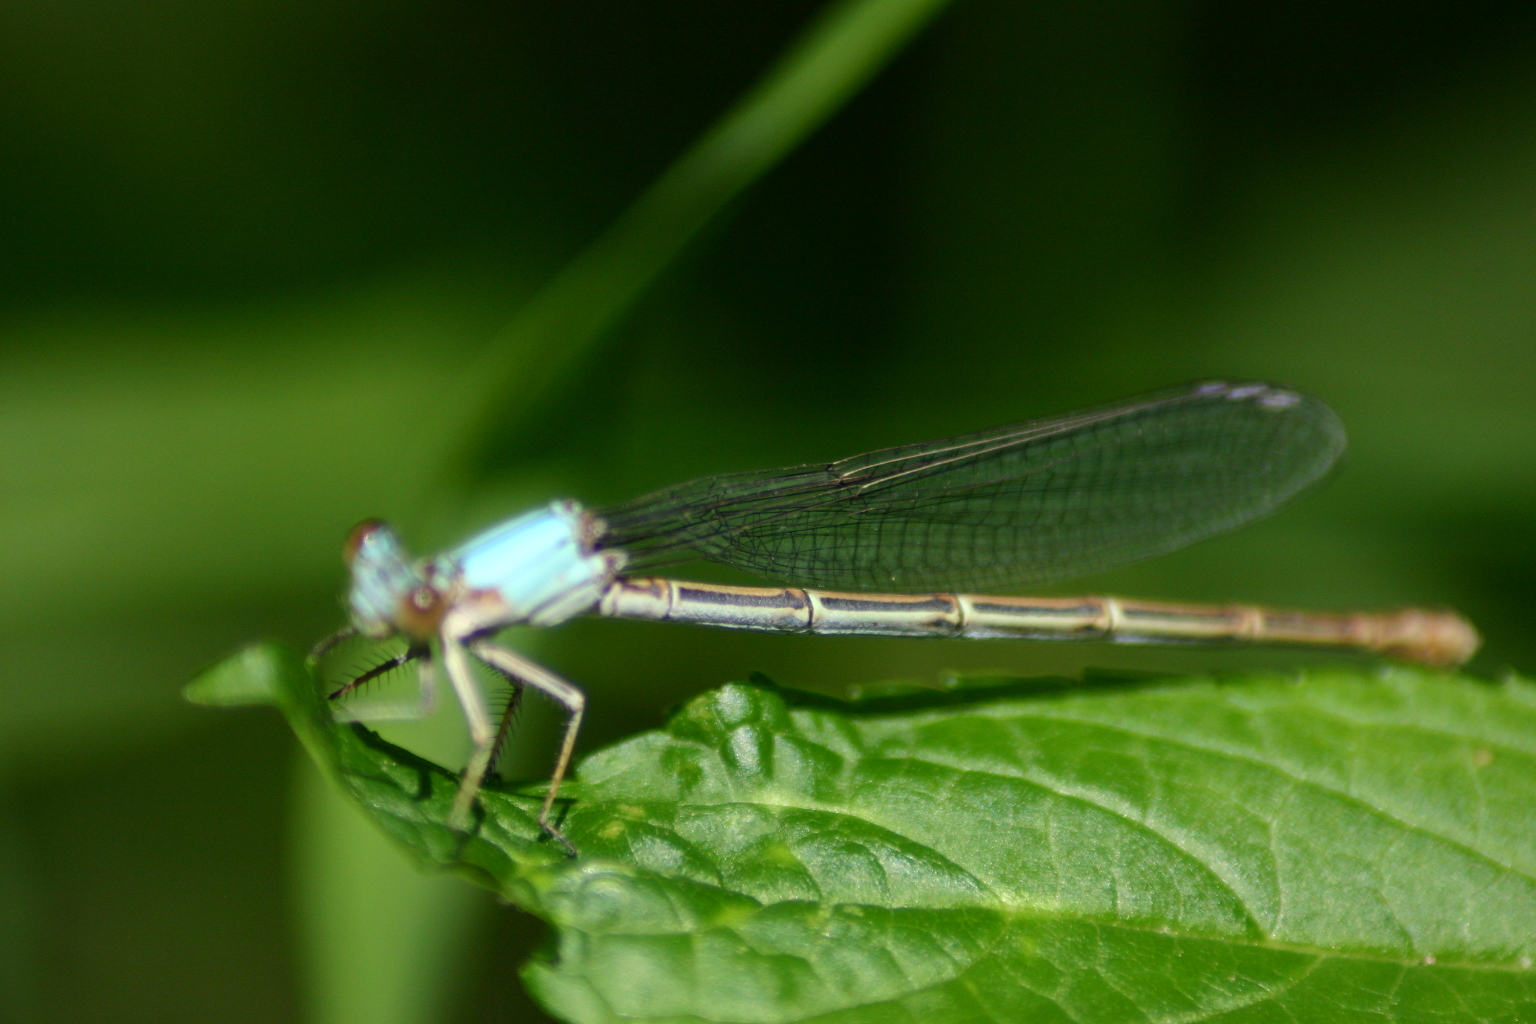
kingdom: Animalia
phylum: Arthropoda
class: Insecta
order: Odonata
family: Coenagrionidae
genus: Argia
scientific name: Argia moesta
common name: Powdered dancer
